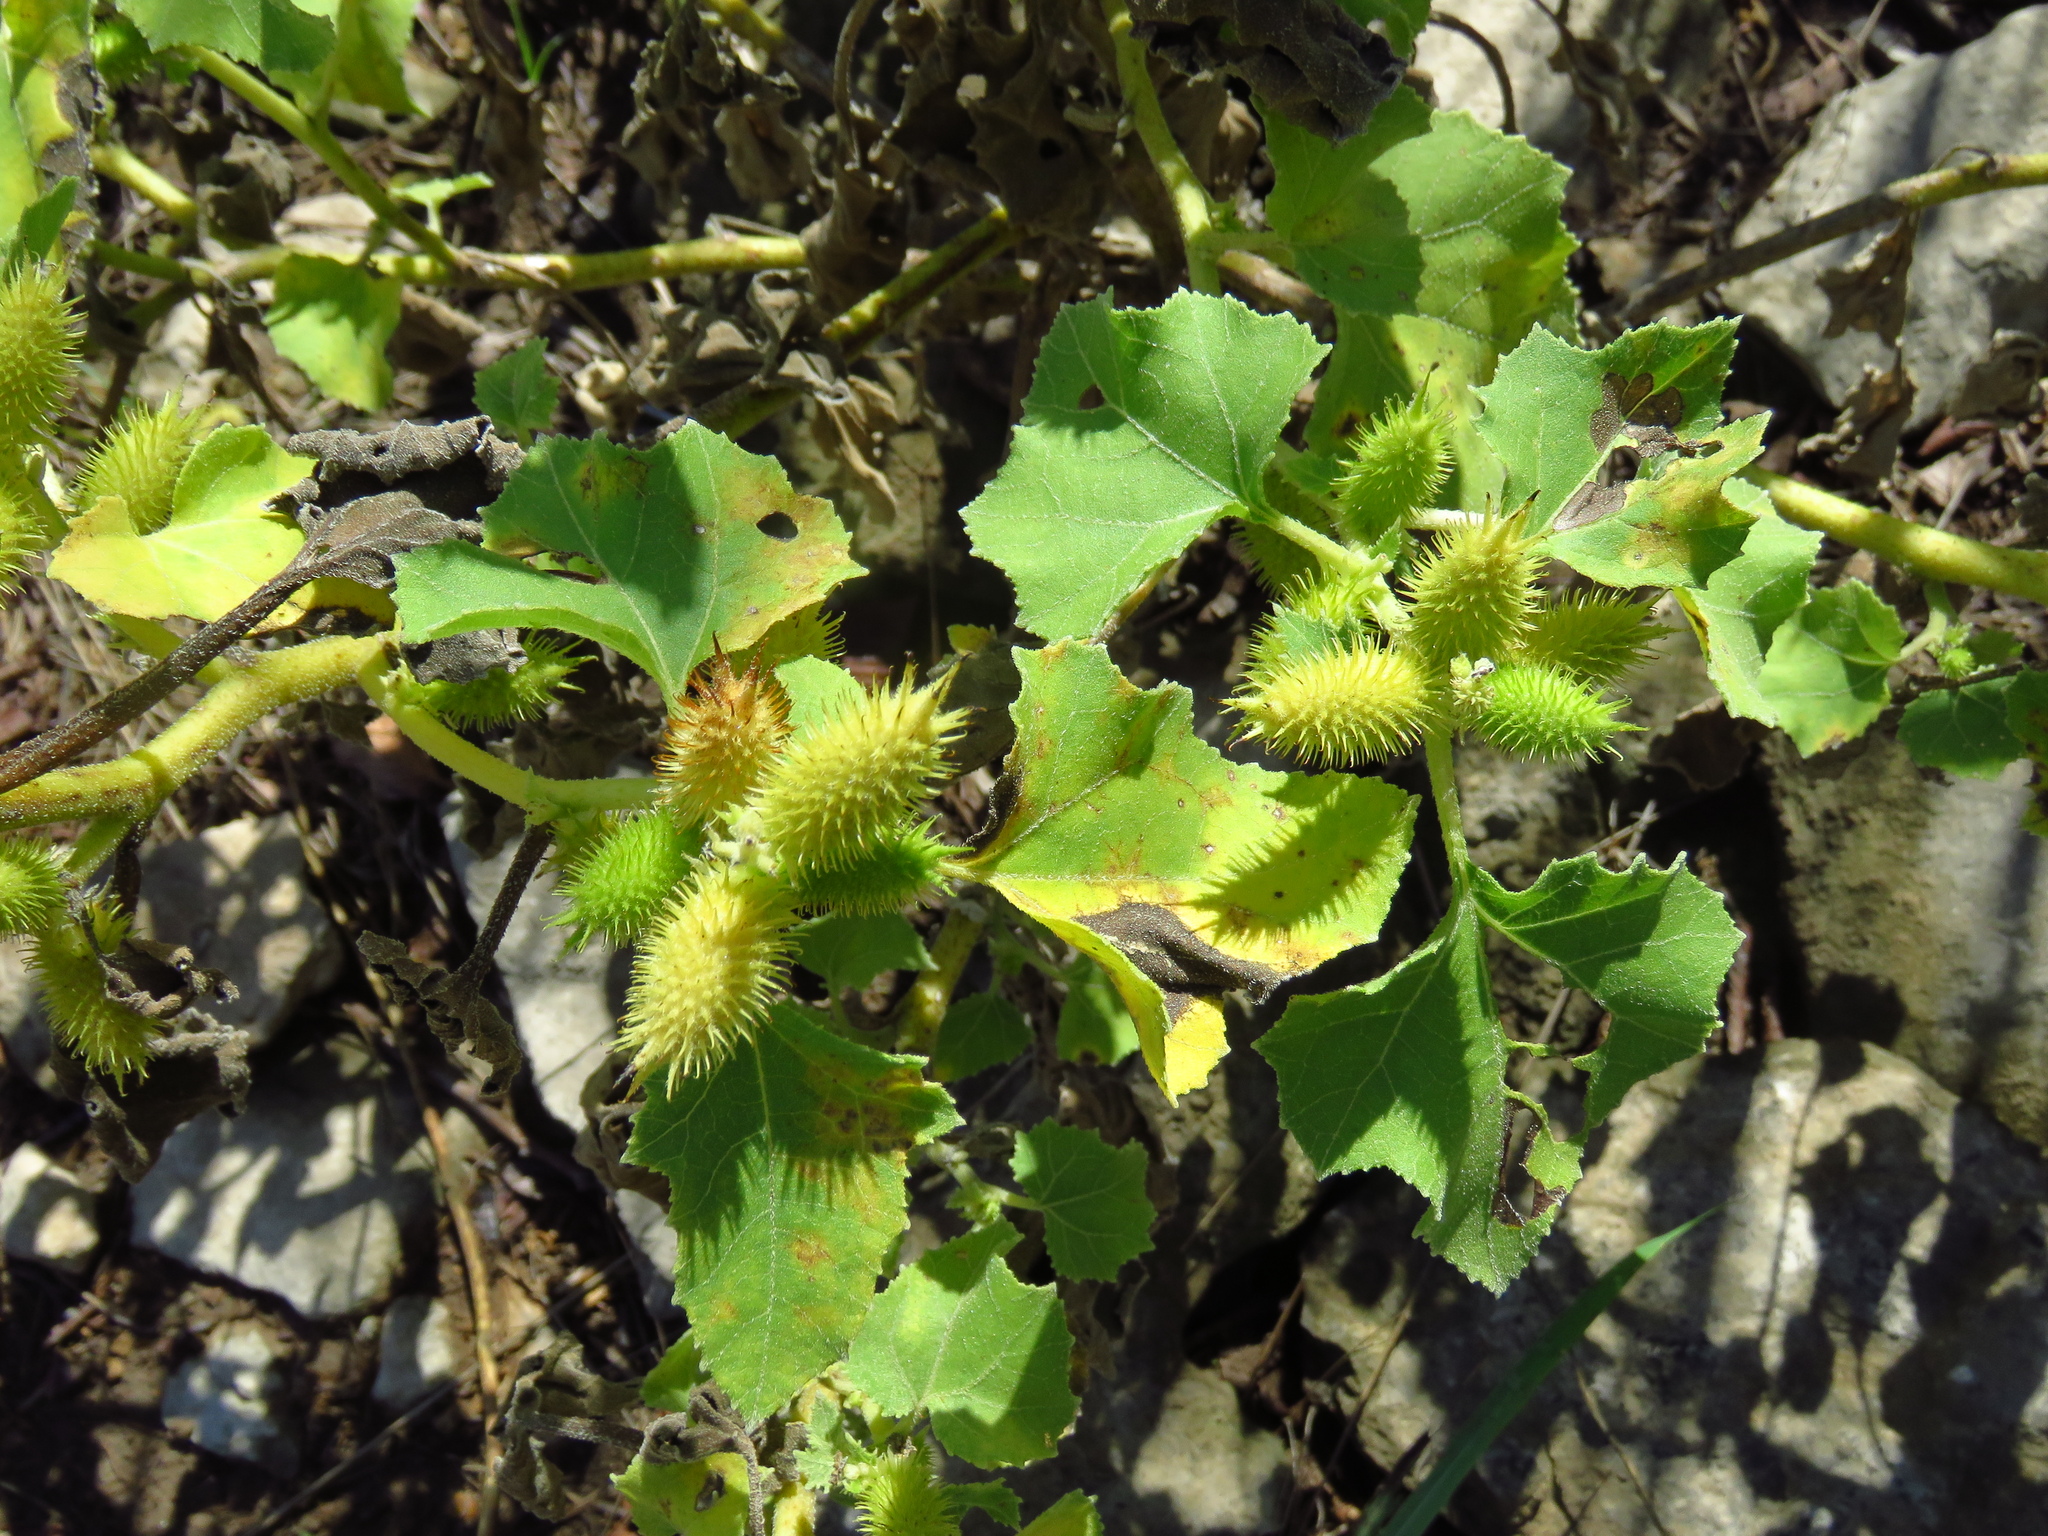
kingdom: Plantae
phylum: Tracheophyta
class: Magnoliopsida
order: Asterales
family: Asteraceae
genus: Xanthium
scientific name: Xanthium strumarium
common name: Rough cocklebur
